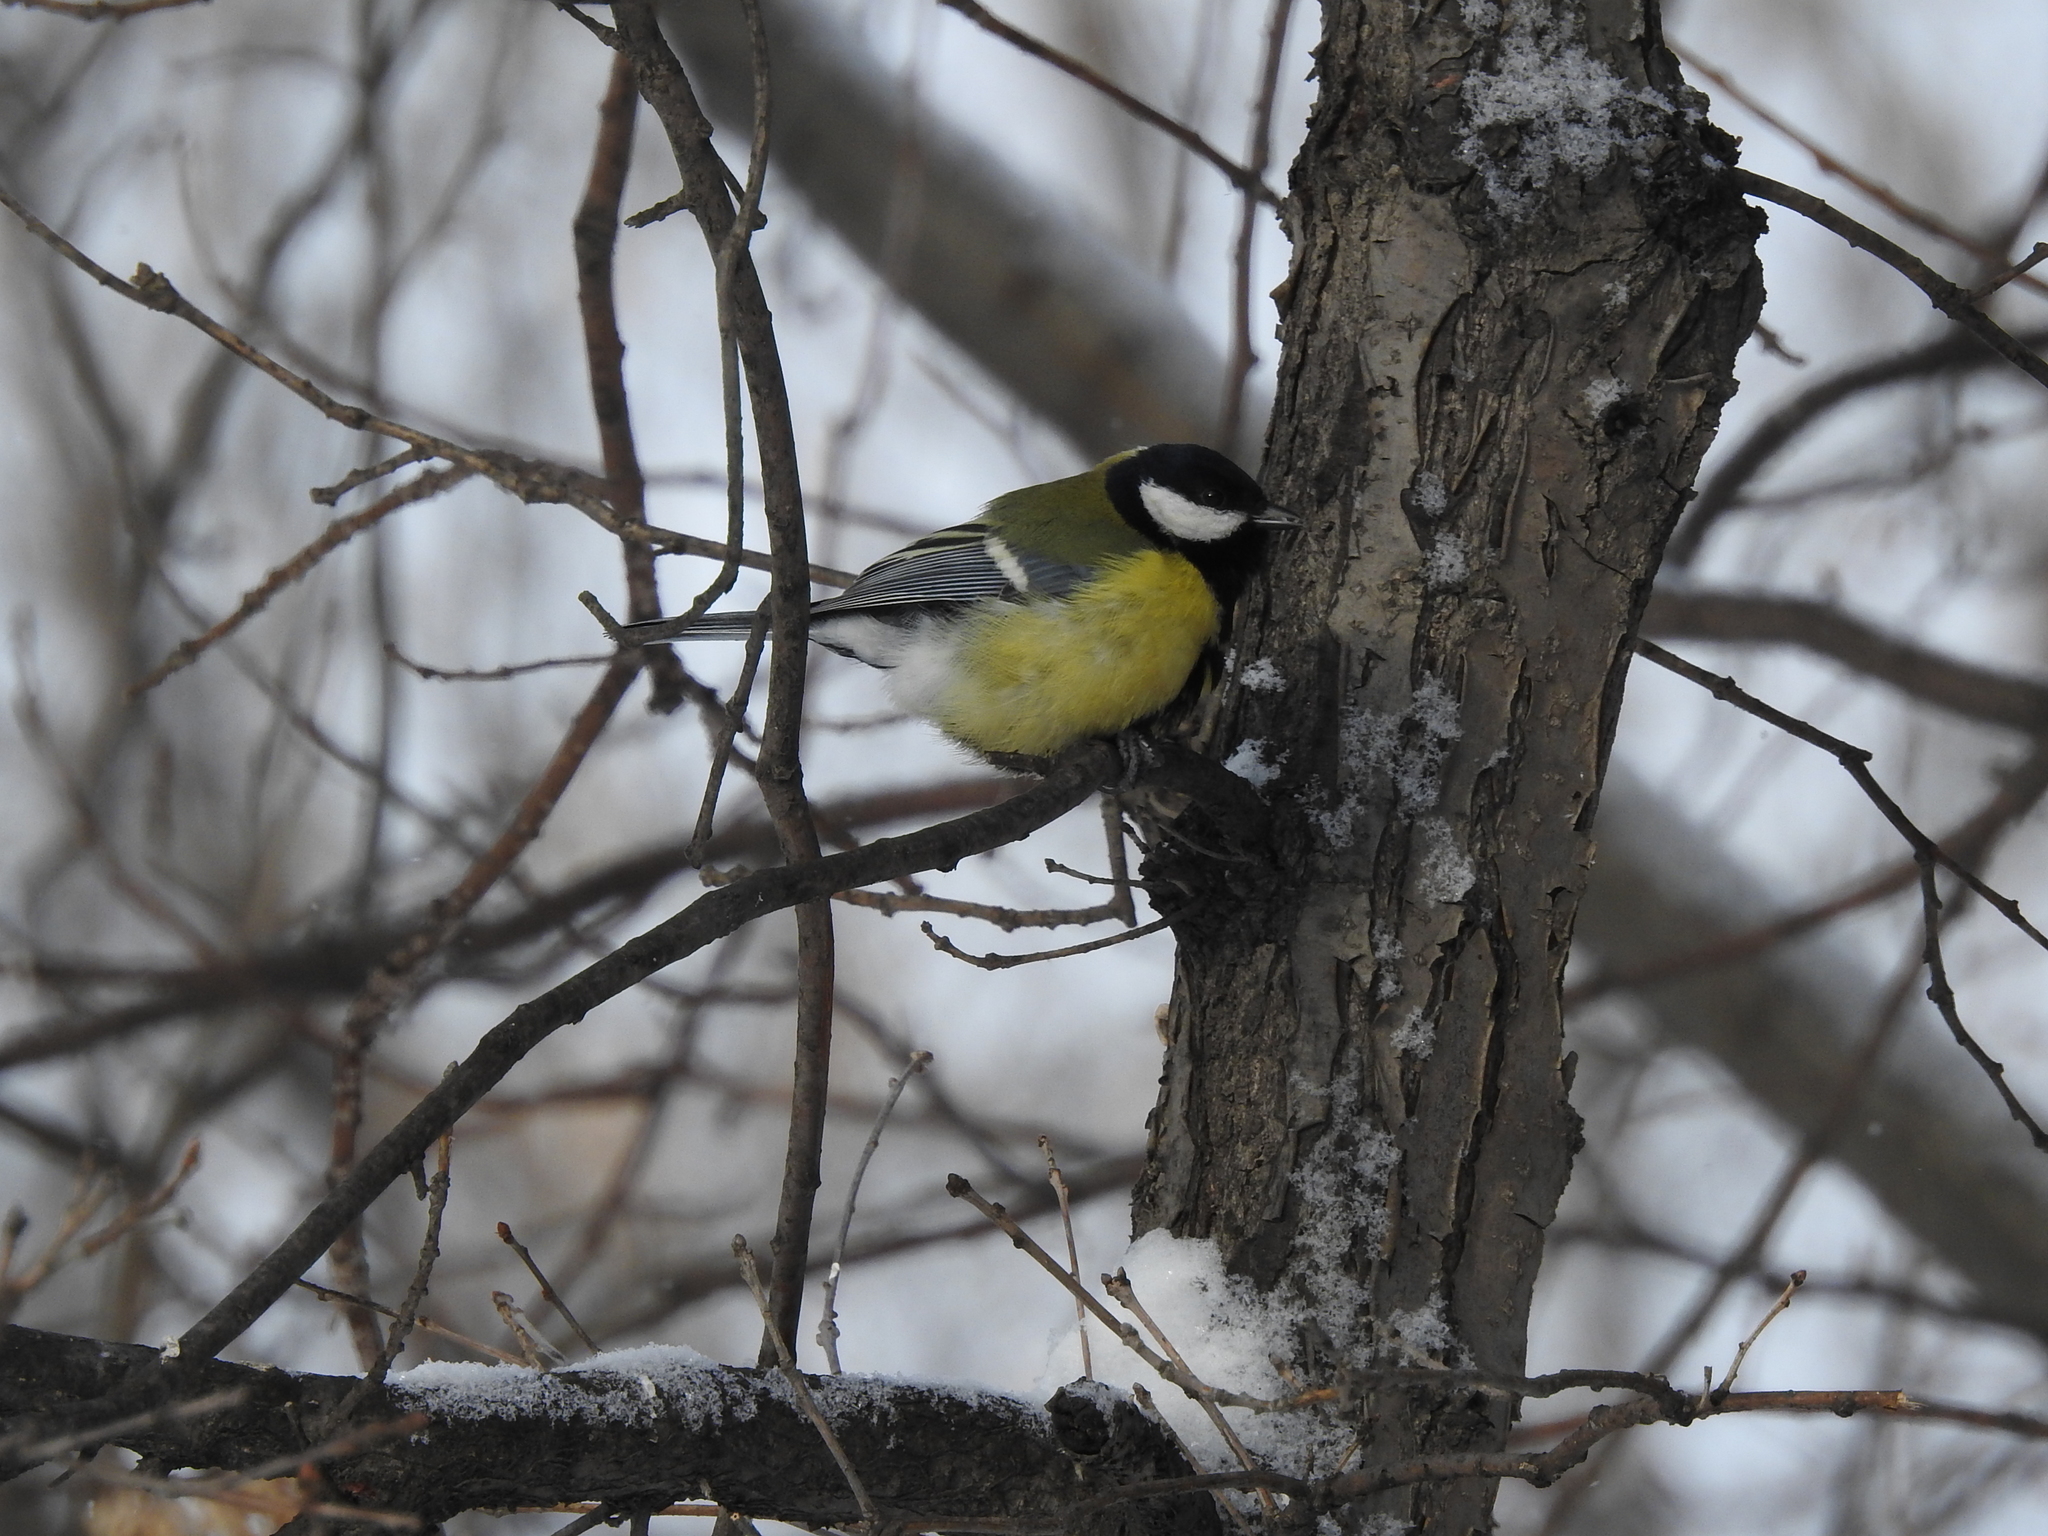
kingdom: Animalia
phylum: Chordata
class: Aves
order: Passeriformes
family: Paridae
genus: Parus
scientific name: Parus major
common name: Great tit
